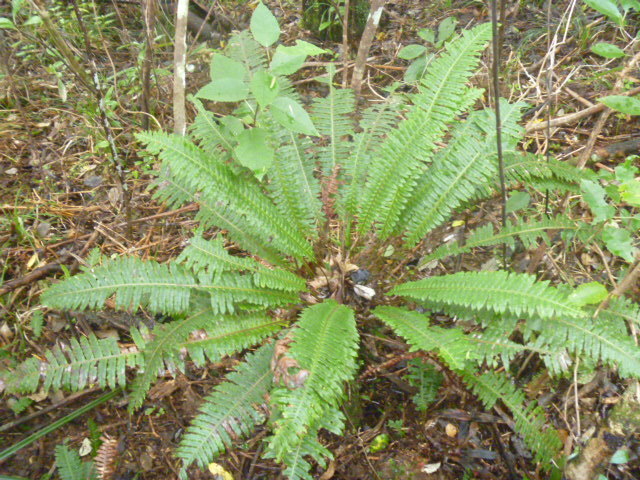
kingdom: Plantae
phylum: Tracheophyta
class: Polypodiopsida
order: Polypodiales
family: Blechnaceae
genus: Lomaria
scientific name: Lomaria discolor
